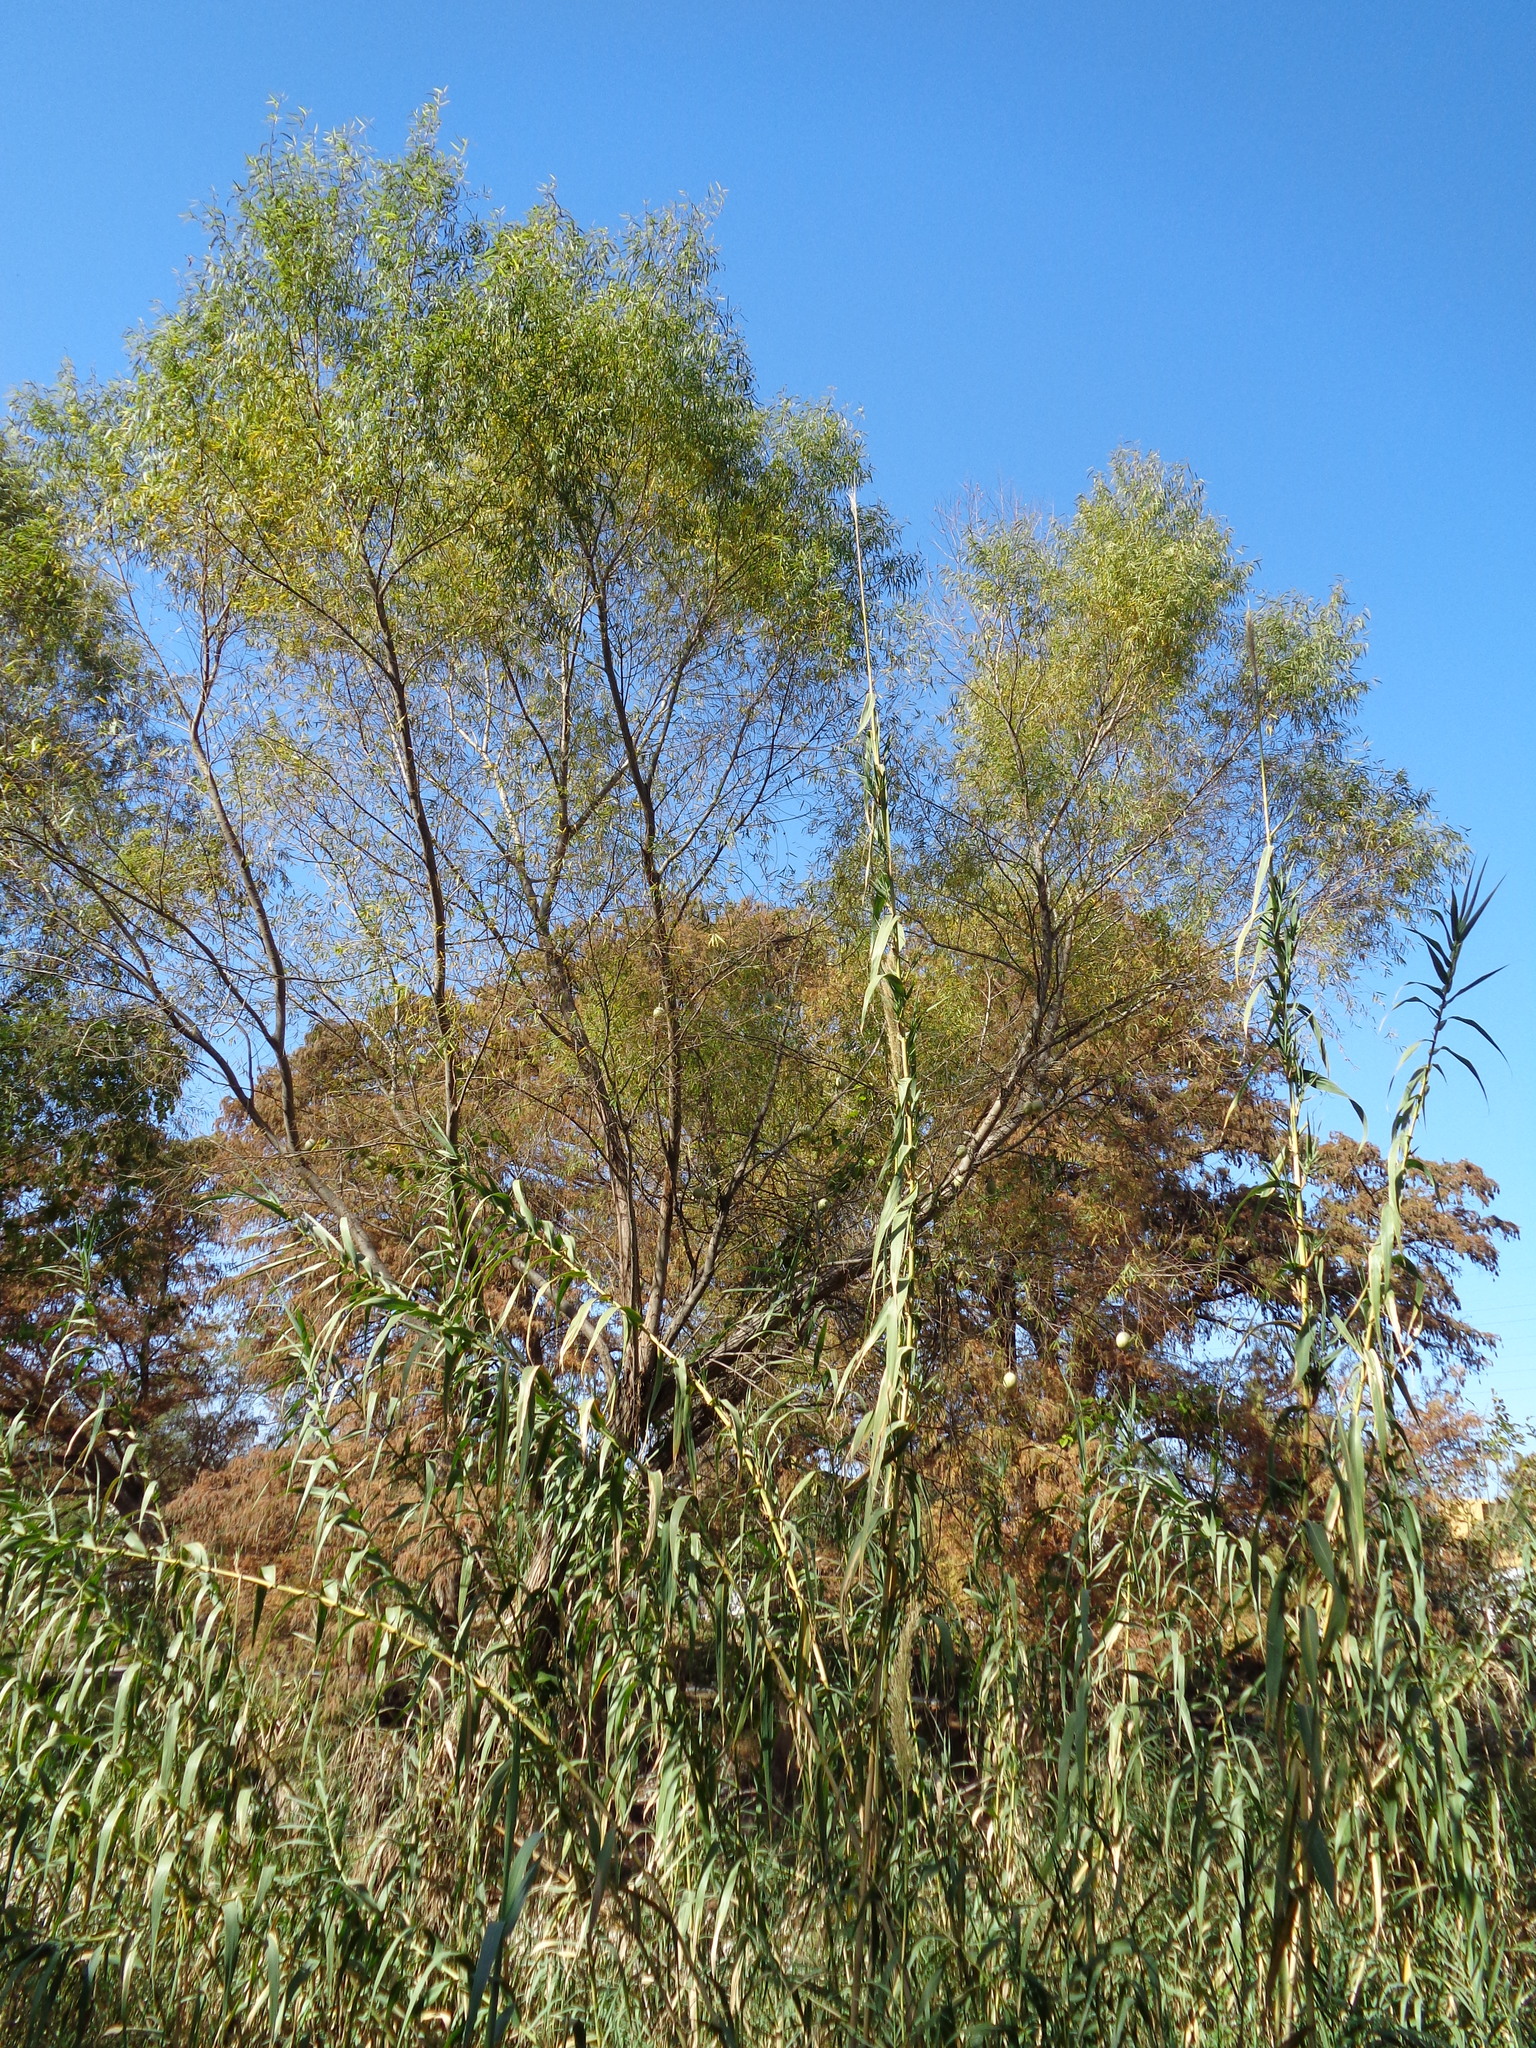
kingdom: Plantae
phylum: Tracheophyta
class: Liliopsida
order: Poales
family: Poaceae
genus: Arundo
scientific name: Arundo donax
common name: Giant reed
